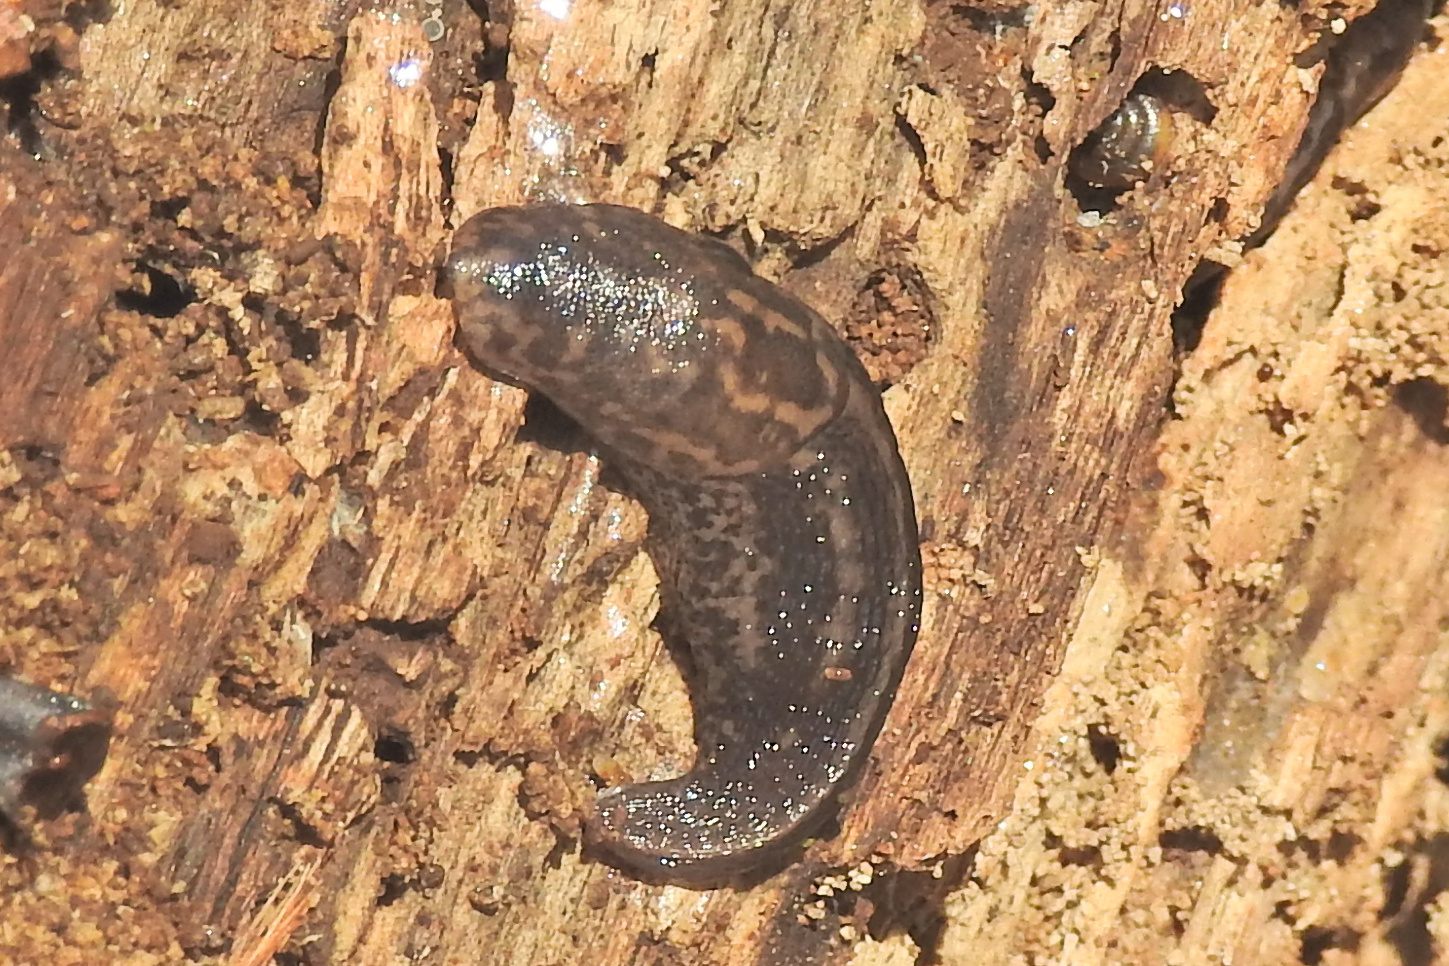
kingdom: Animalia
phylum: Mollusca
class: Gastropoda
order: Stylommatophora
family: Limacidae
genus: Limax
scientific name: Limax maximus
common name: Great grey slug
